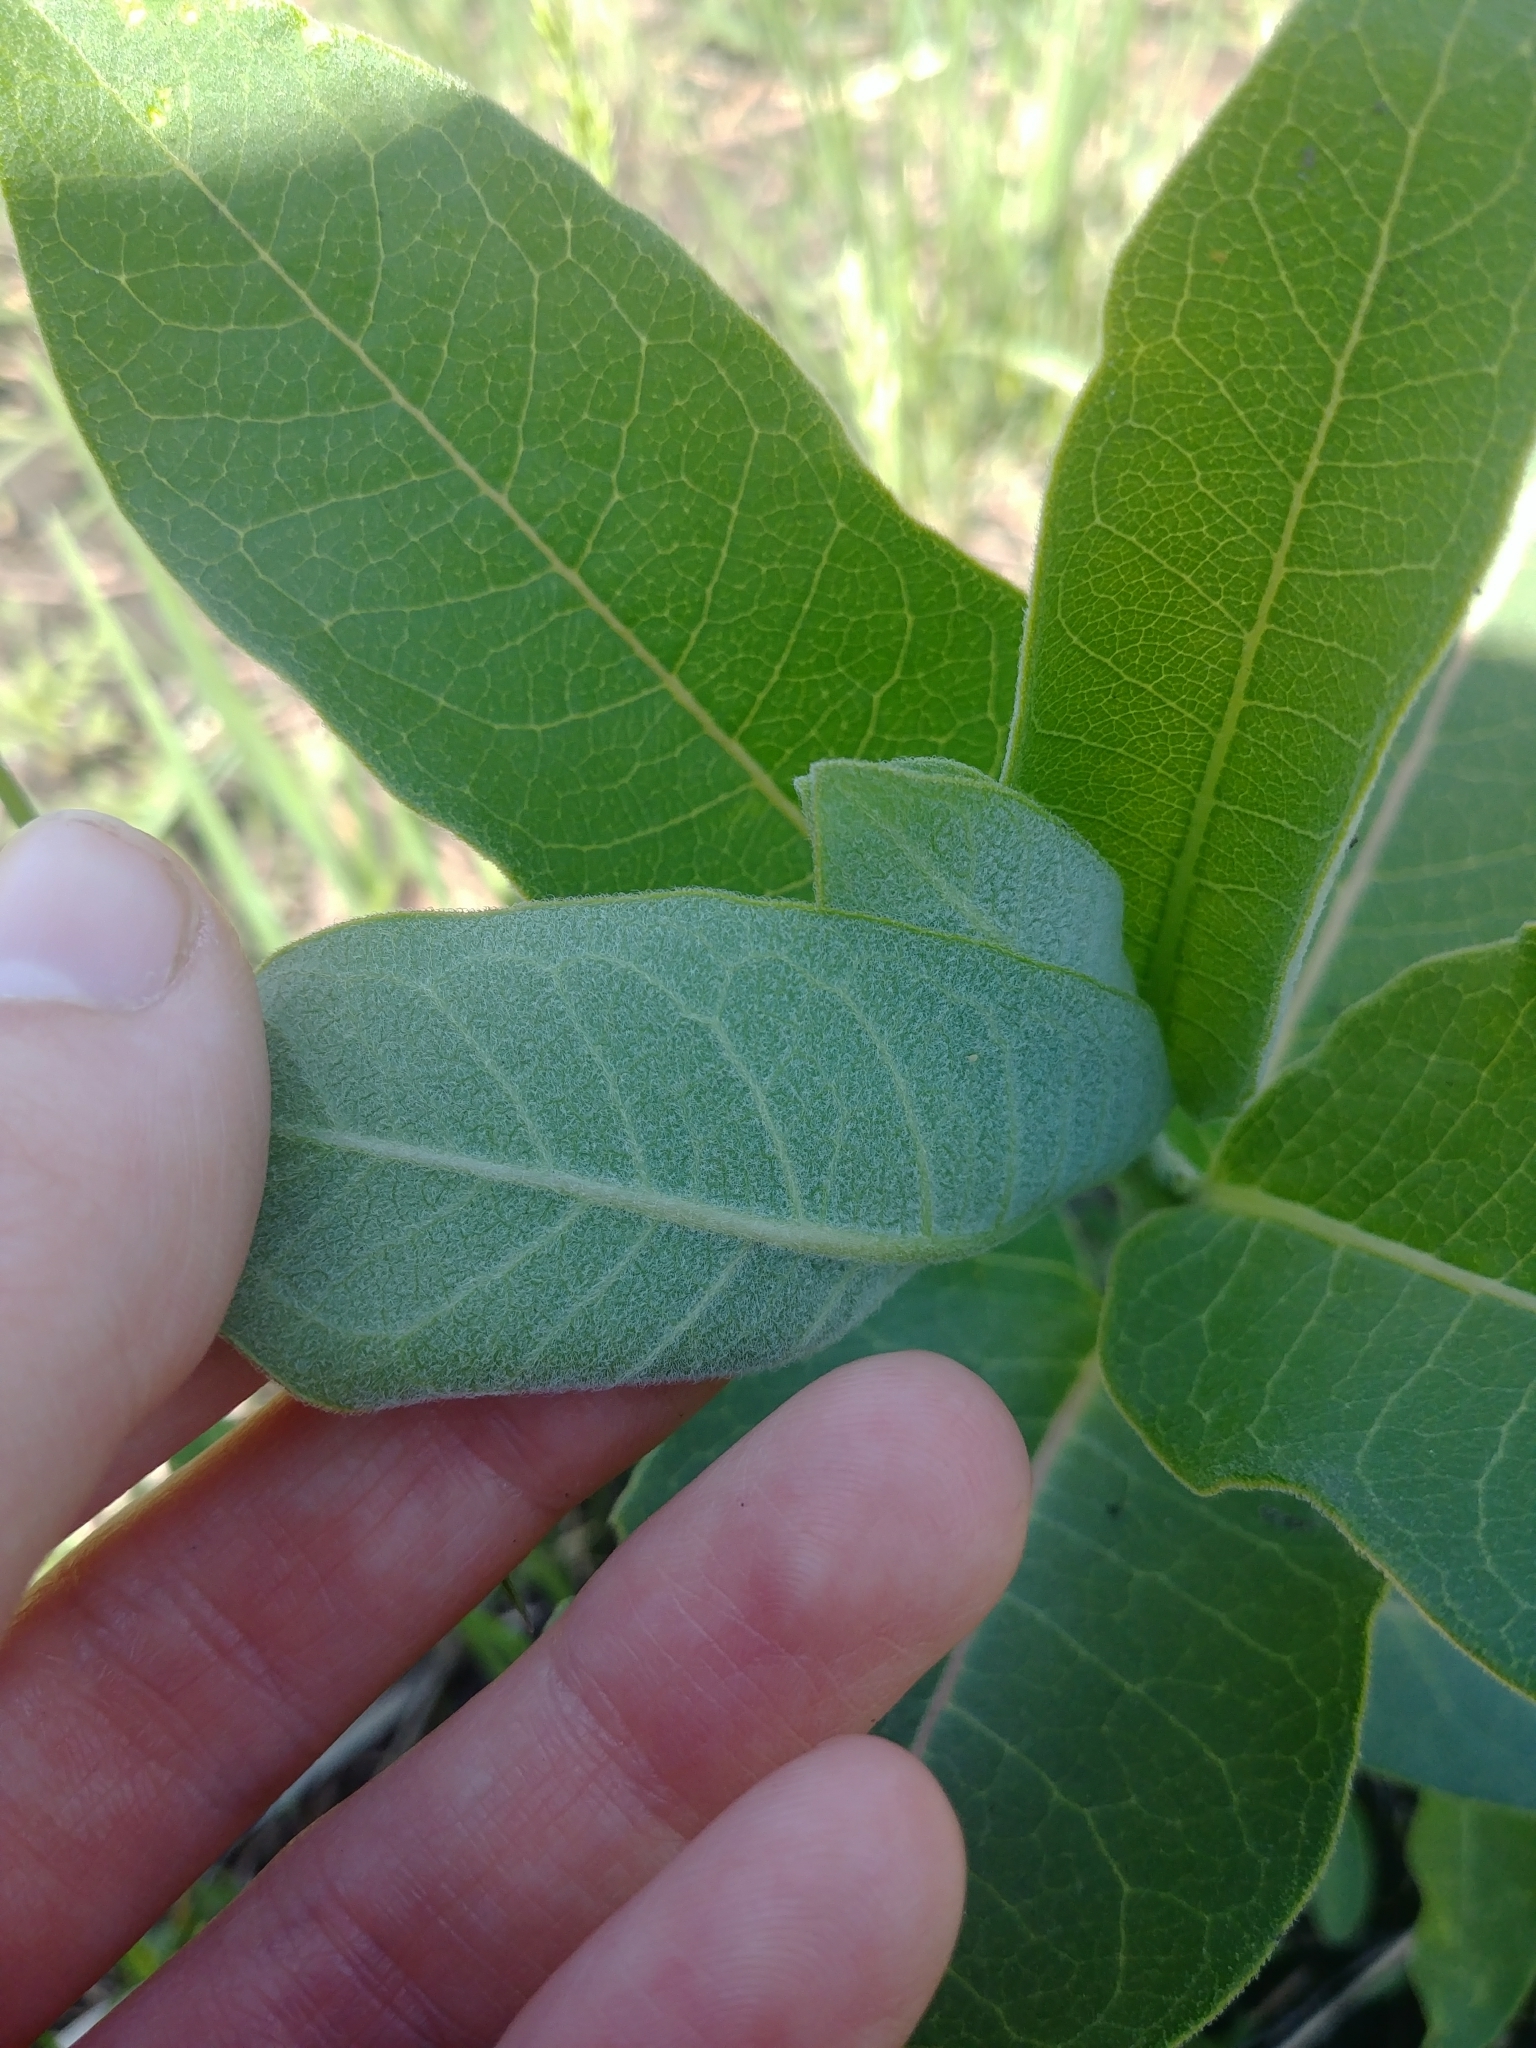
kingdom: Plantae
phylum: Tracheophyta
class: Magnoliopsida
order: Gentianales
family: Apocynaceae
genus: Asclepias
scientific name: Asclepias syriaca
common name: Common milkweed
